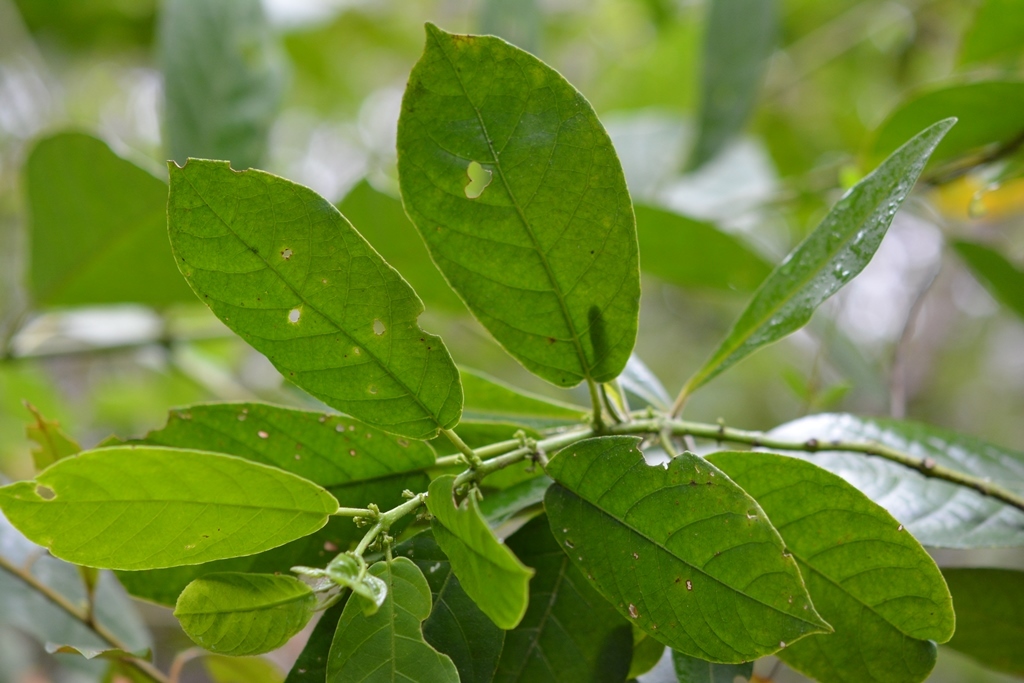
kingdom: Plantae
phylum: Tracheophyta
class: Magnoliopsida
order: Laurales
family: Siparunaceae
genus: Siparuna
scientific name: Siparuna thecaphora
